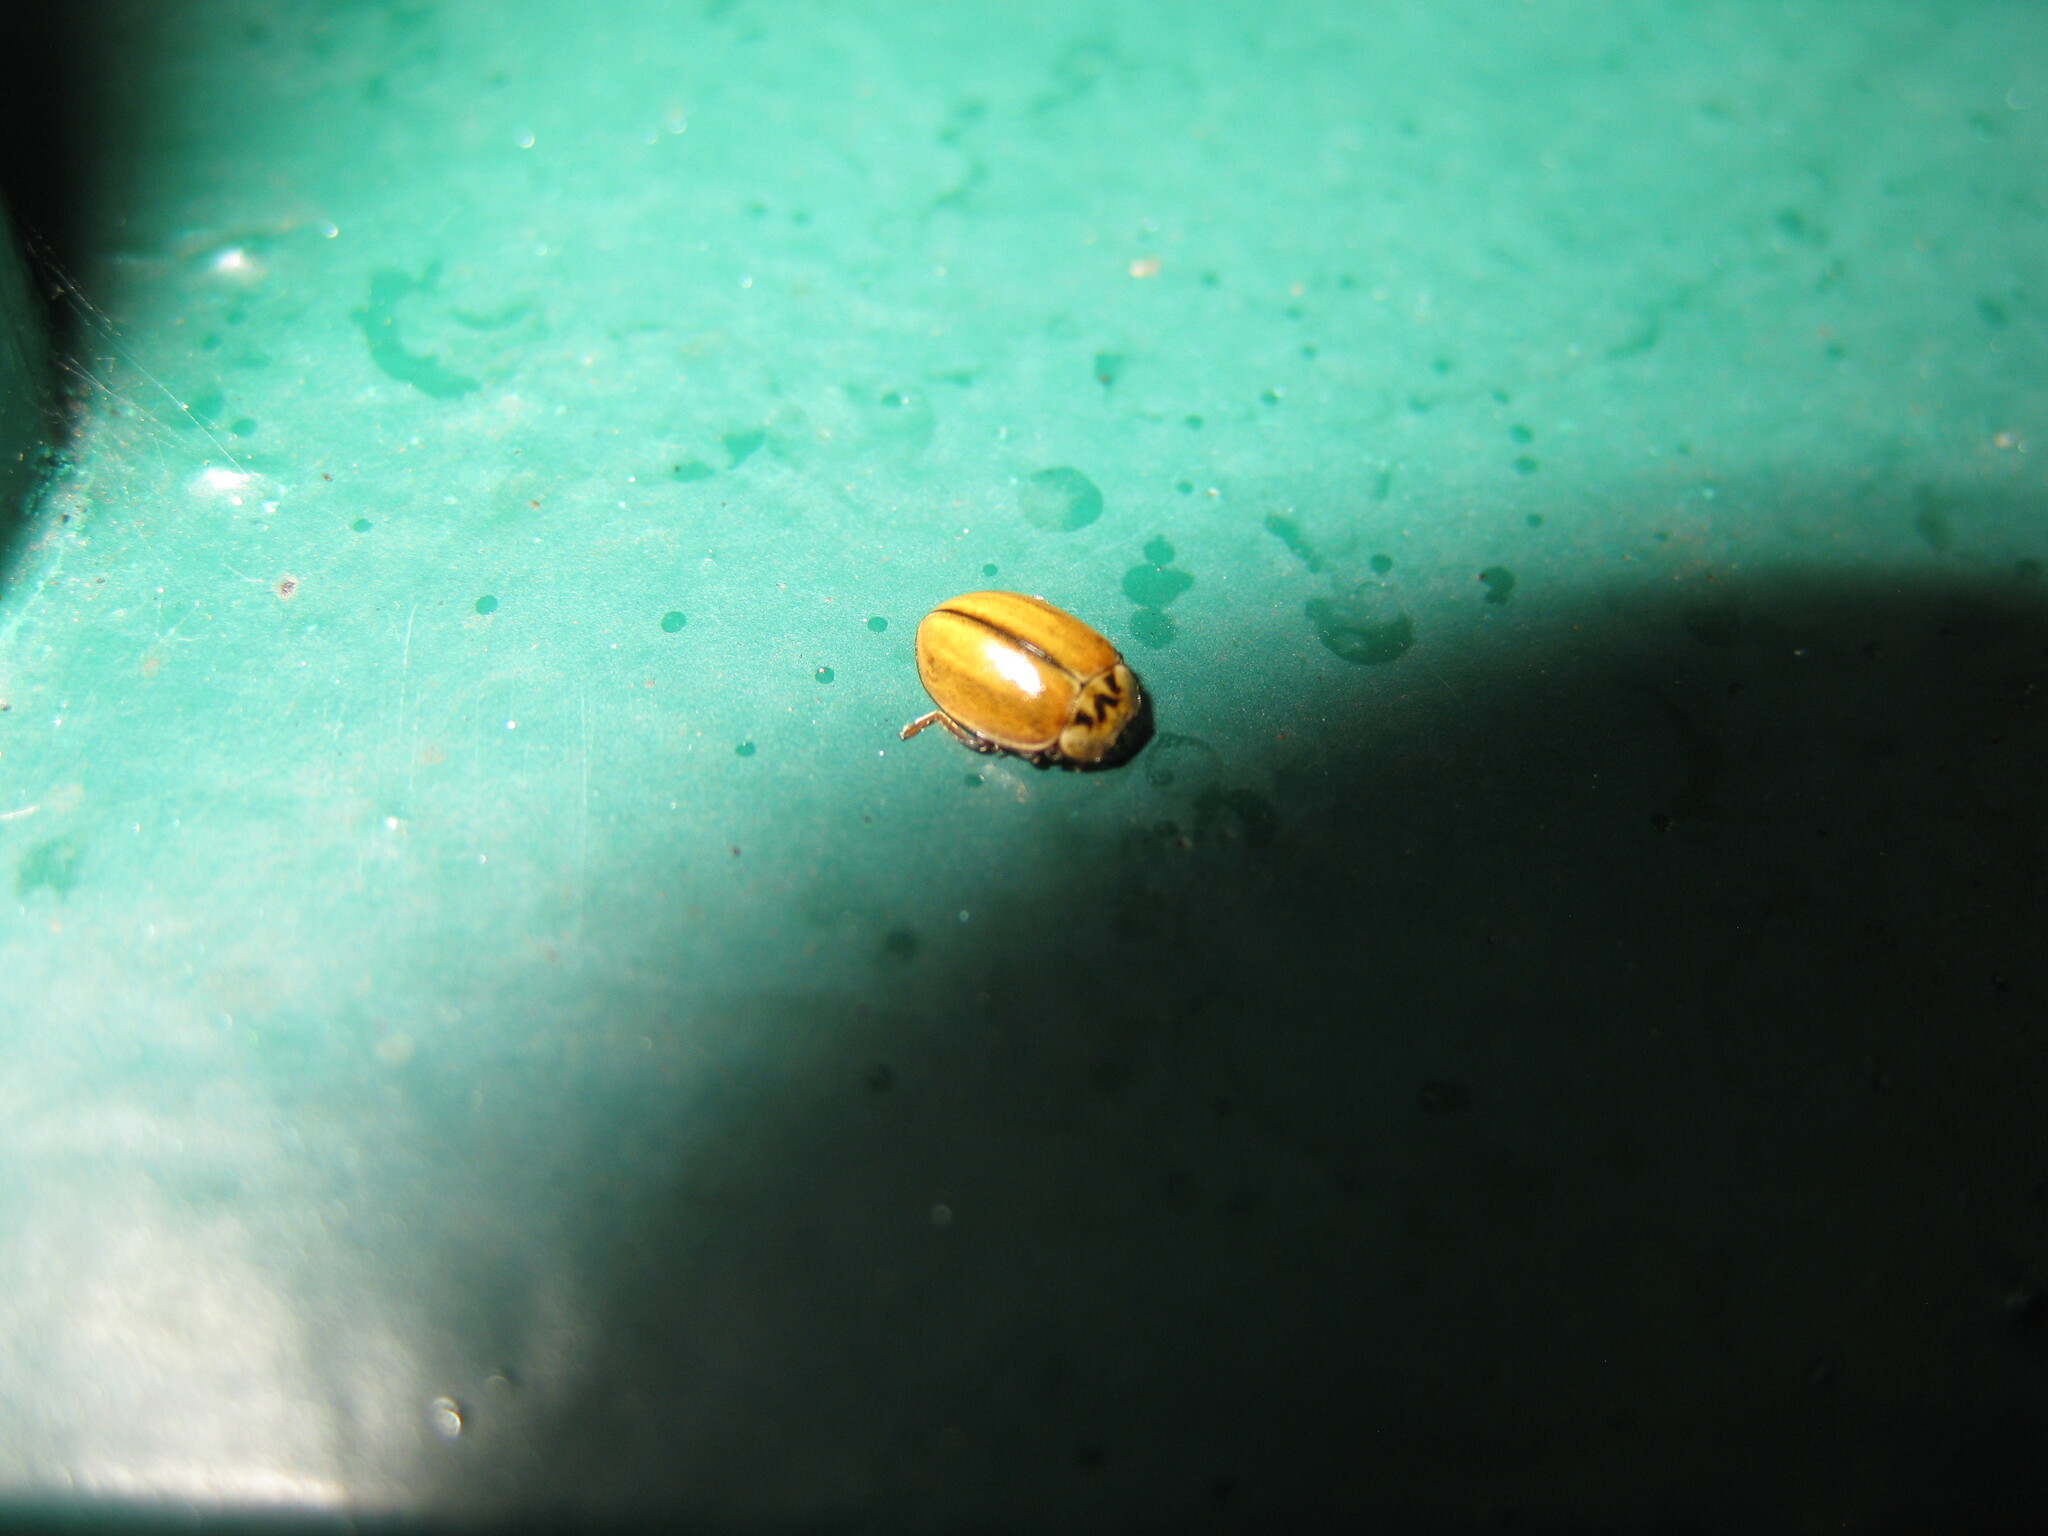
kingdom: Animalia
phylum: Arthropoda
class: Insecta
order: Coleoptera
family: Coccinellidae
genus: Aphidecta
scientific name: Aphidecta obliterata
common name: Larch ladybird
